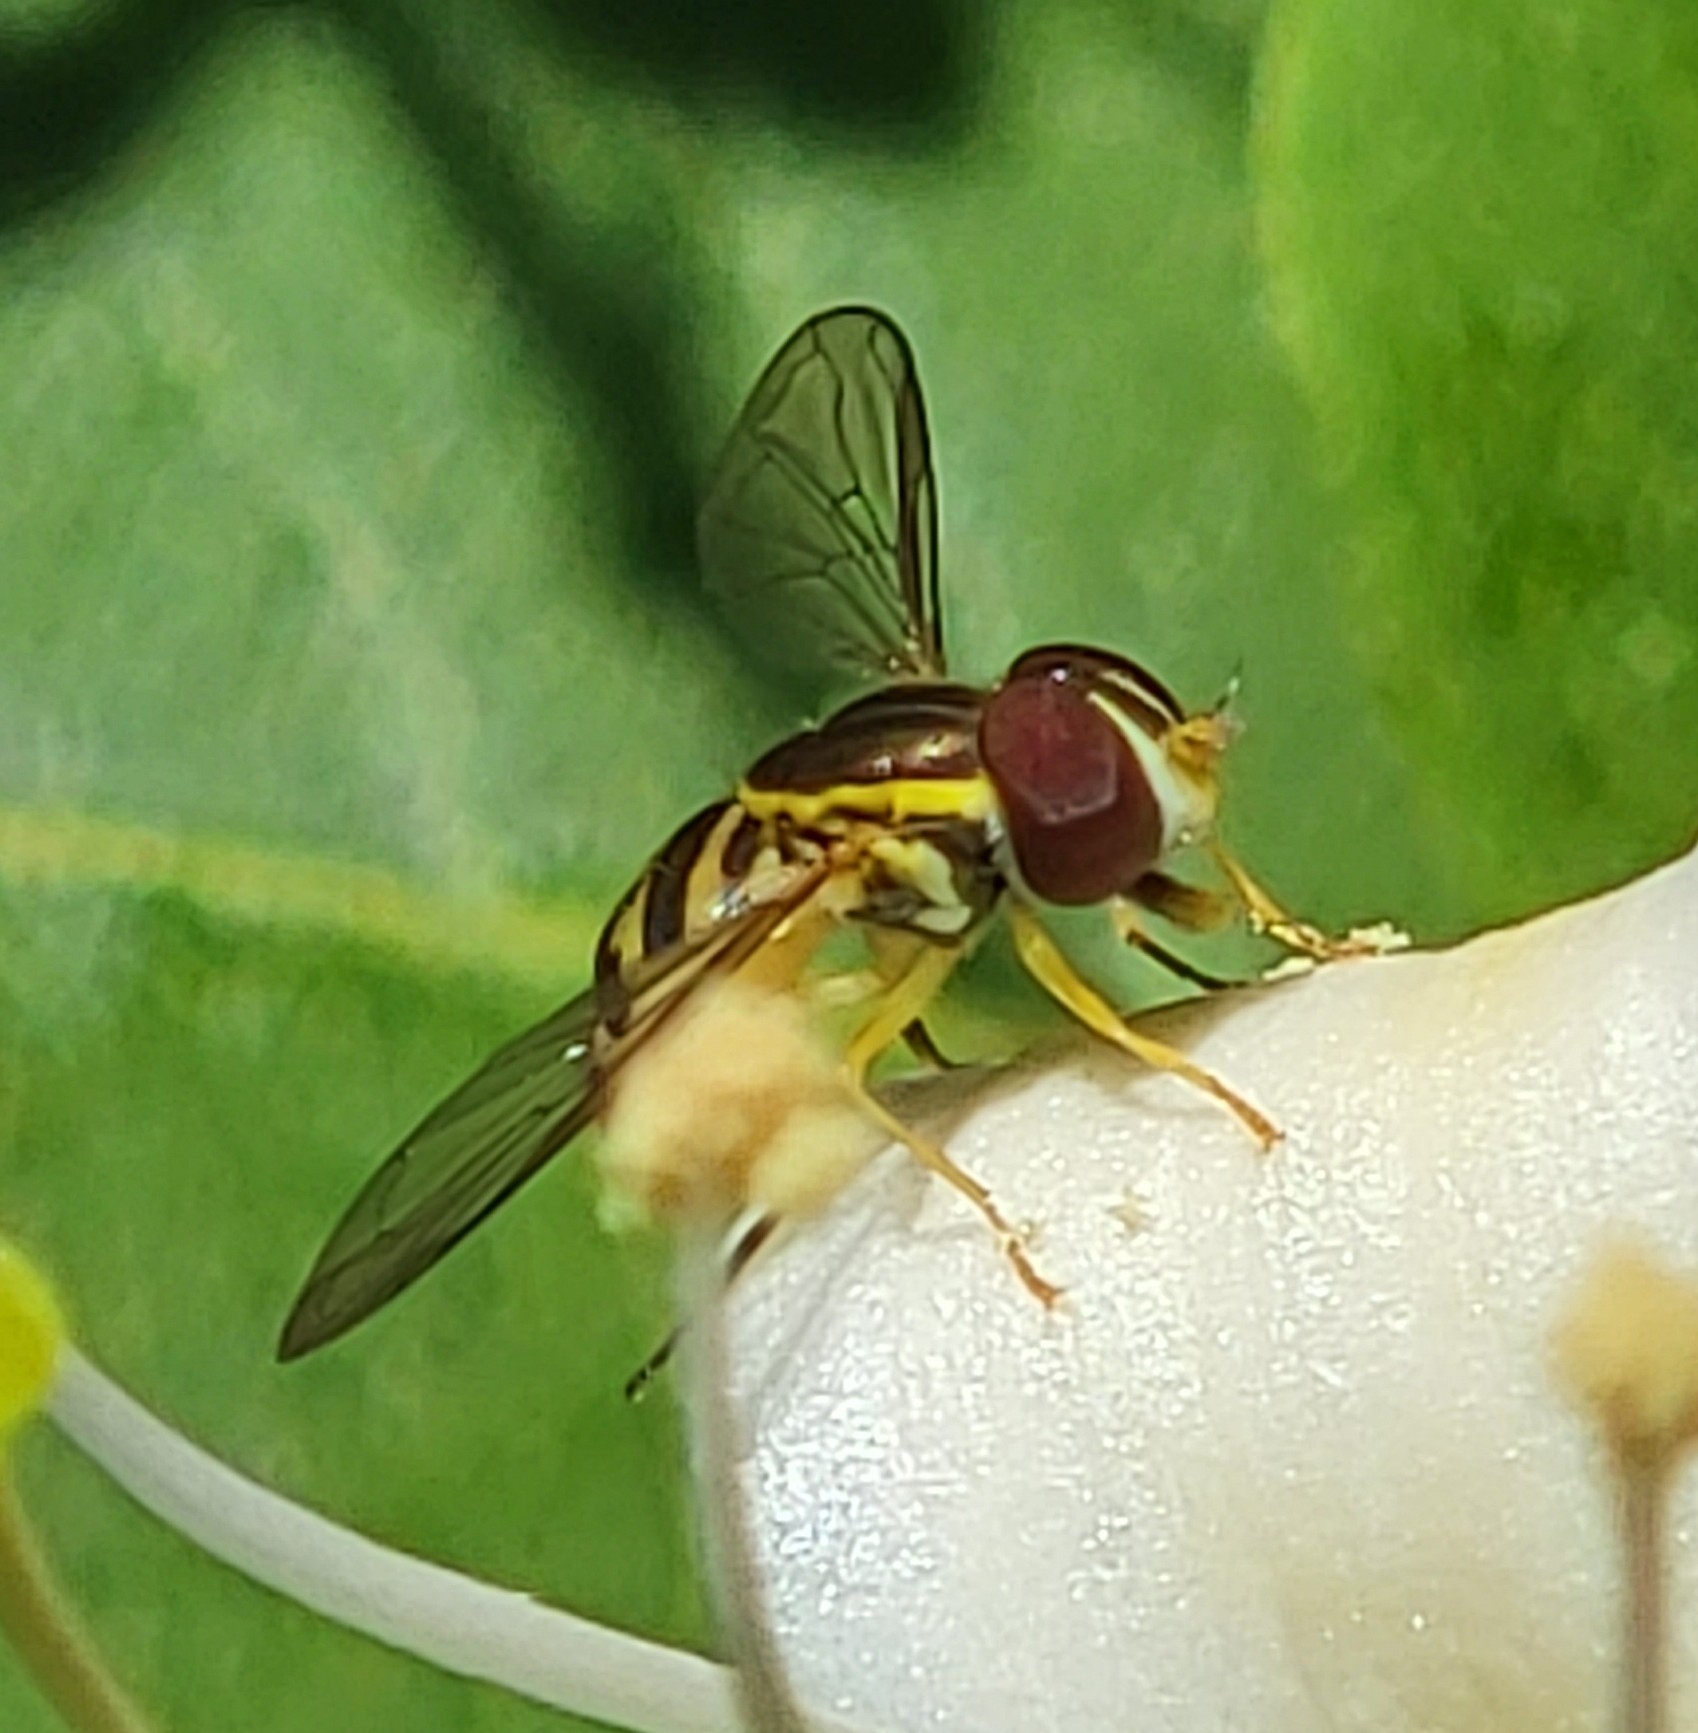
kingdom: Animalia
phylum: Arthropoda
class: Insecta
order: Diptera
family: Syrphidae
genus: Toxomerus
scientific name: Toxomerus geminatus
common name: Eastern calligrapher
